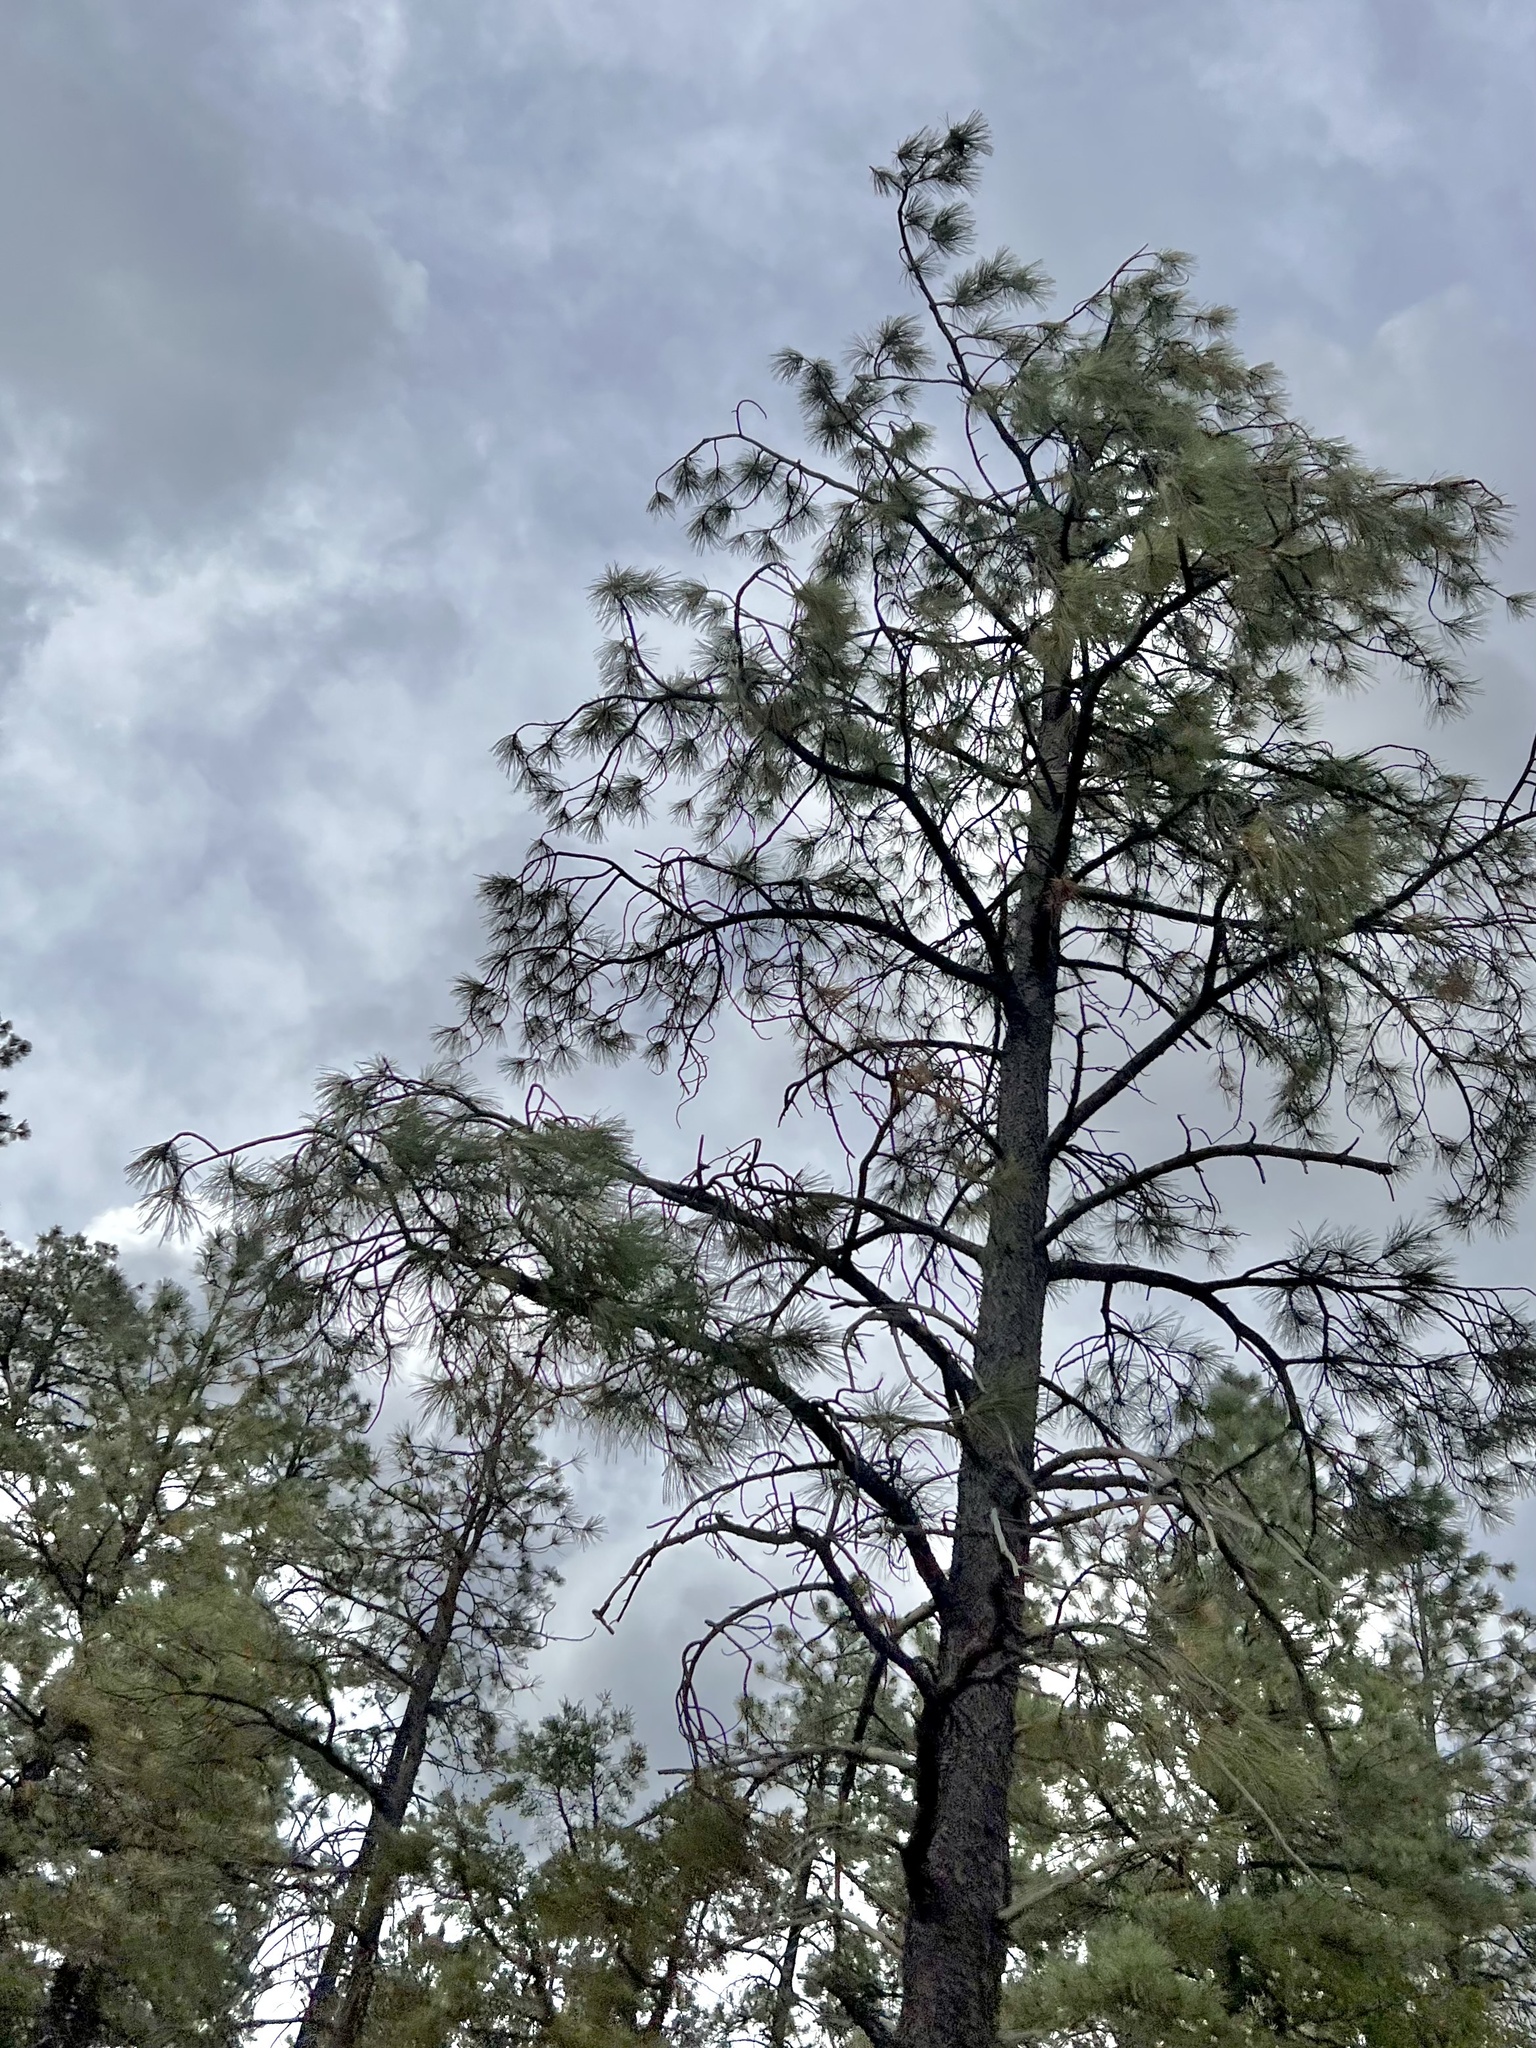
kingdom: Plantae
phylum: Tracheophyta
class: Pinopsida
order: Pinales
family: Pinaceae
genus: Pinus
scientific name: Pinus ponderosa
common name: Western yellow-pine
